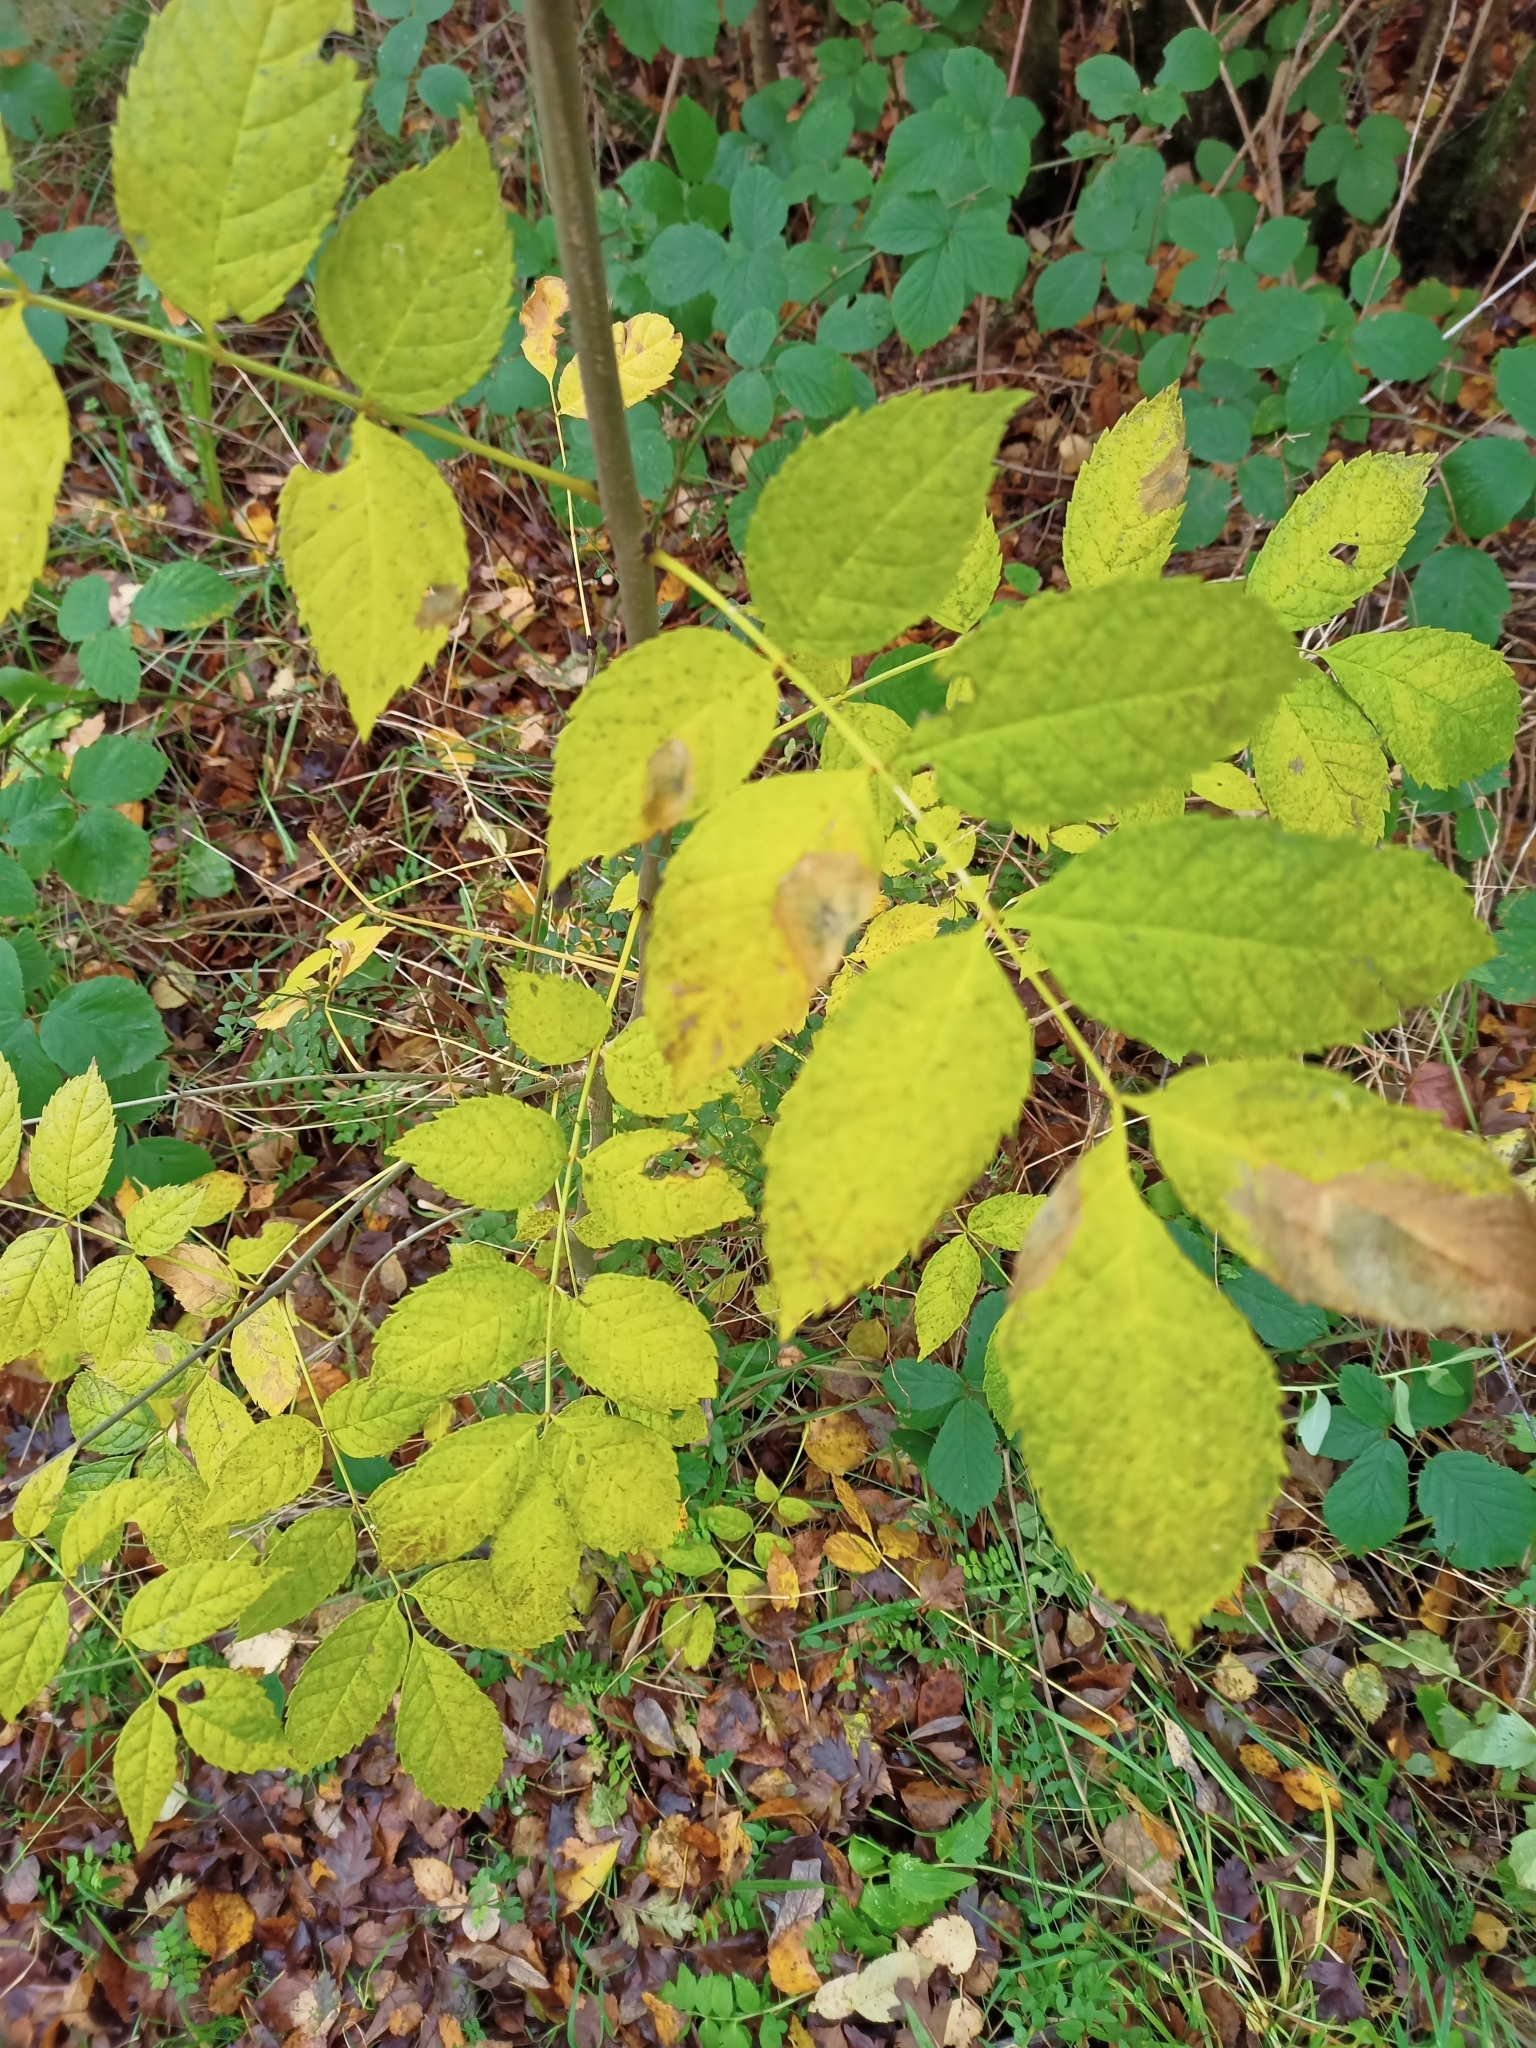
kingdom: Plantae
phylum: Tracheophyta
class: Magnoliopsida
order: Lamiales
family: Oleaceae
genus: Fraxinus
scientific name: Fraxinus excelsior
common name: European ash
